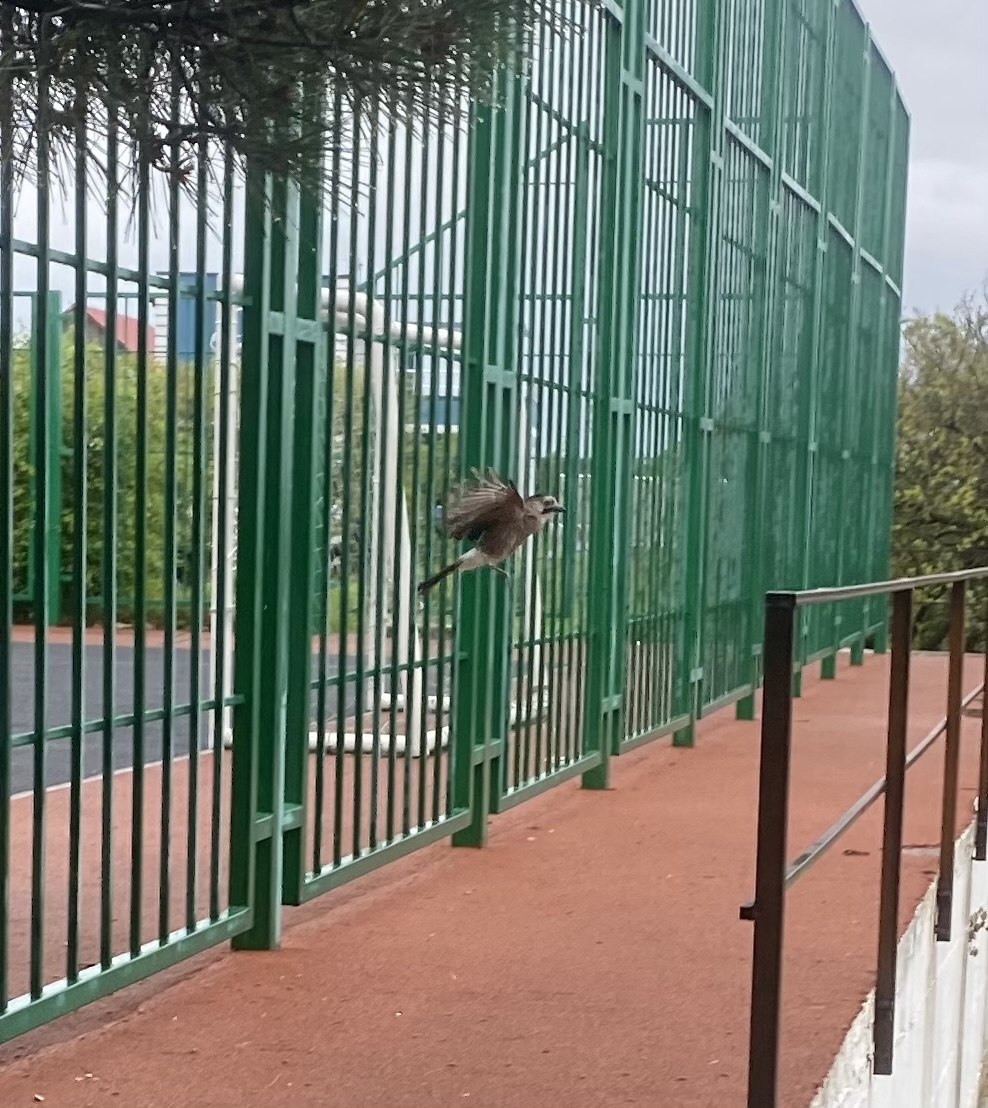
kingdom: Animalia
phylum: Chordata
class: Aves
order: Passeriformes
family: Corvidae
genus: Garrulus
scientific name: Garrulus glandarius
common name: Eurasian jay
